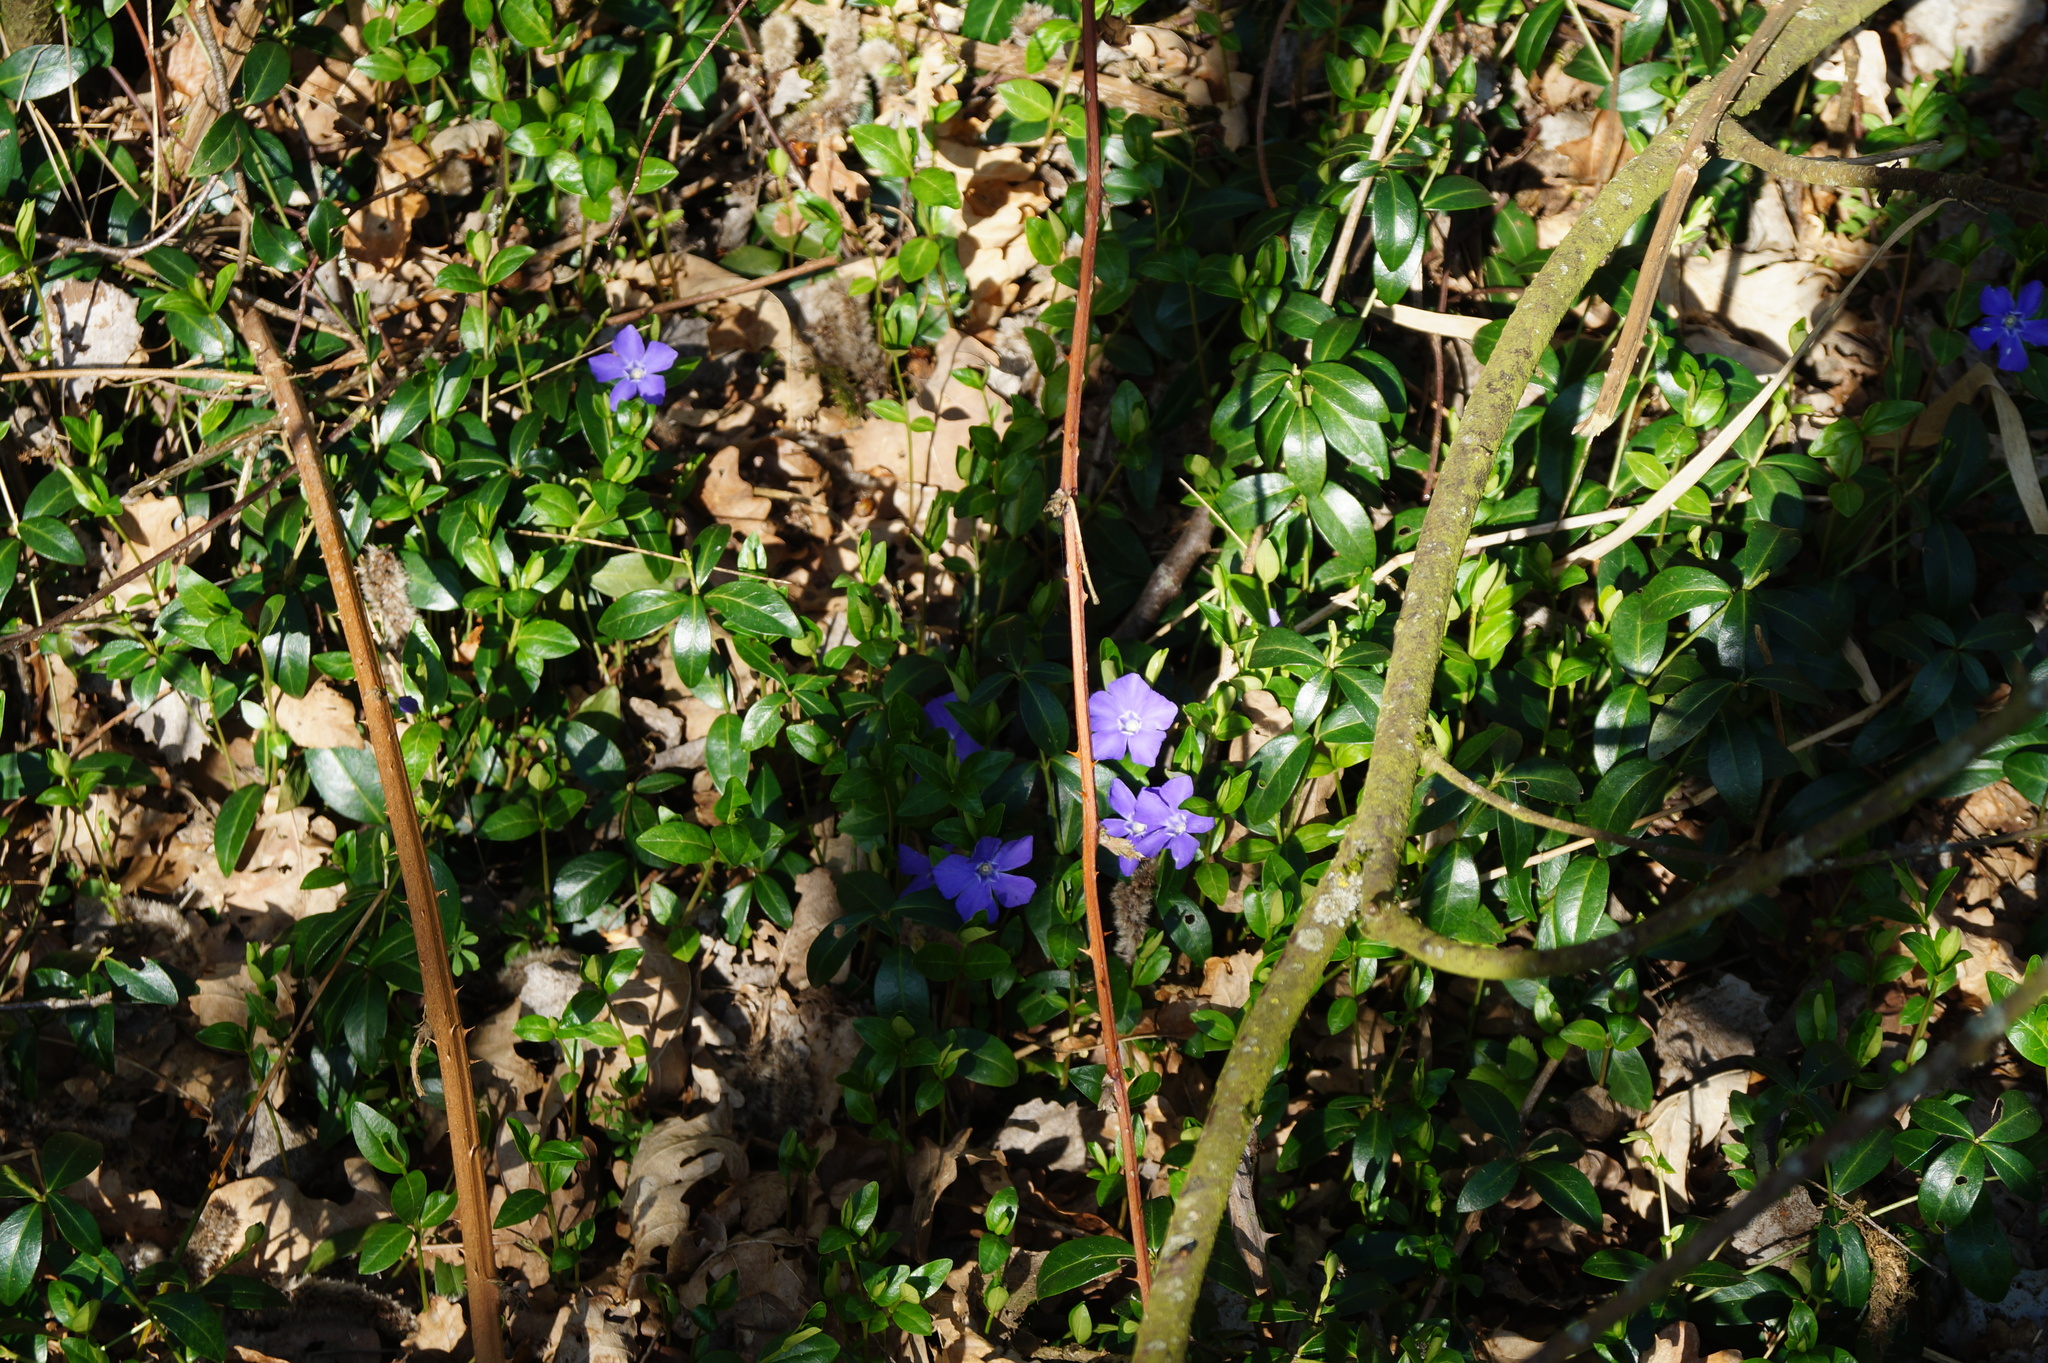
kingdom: Plantae
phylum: Tracheophyta
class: Magnoliopsida
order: Gentianales
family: Apocynaceae
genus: Vinca
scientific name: Vinca minor
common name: Lesser periwinkle
